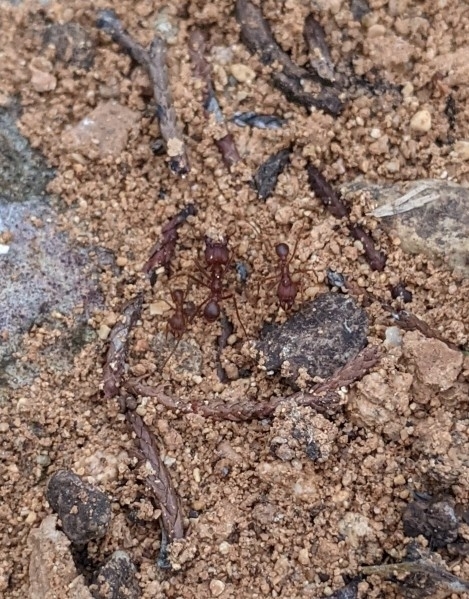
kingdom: Animalia
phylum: Arthropoda
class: Insecta
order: Hymenoptera
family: Formicidae
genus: Atta
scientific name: Atta texana
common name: Texas leafcutting ant
